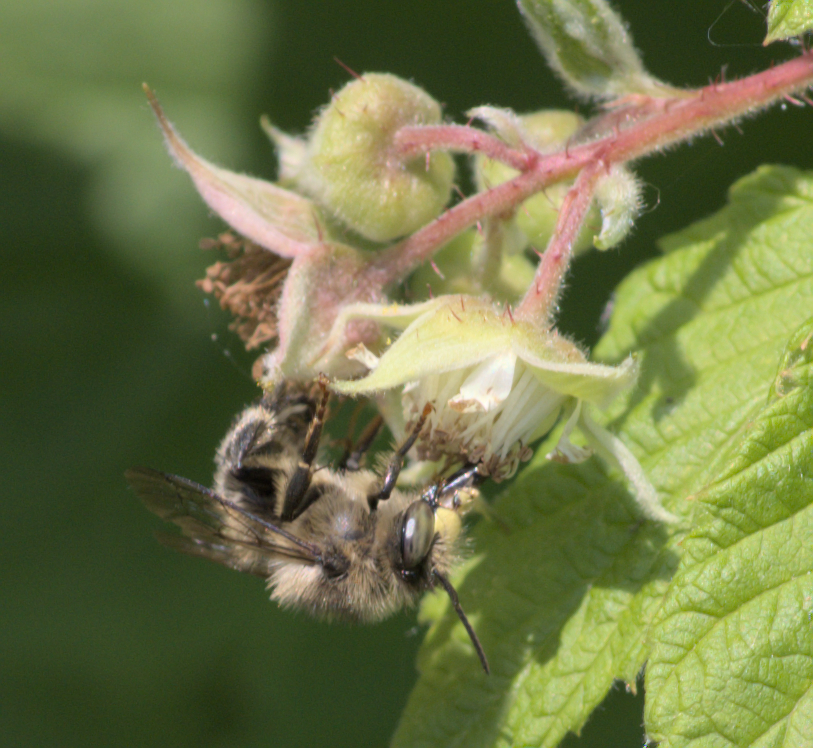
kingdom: Animalia
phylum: Arthropoda
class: Insecta
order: Hymenoptera
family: Apidae
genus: Anthophora
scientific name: Anthophora terminalis
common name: Orange-tipped wood-digger bee
